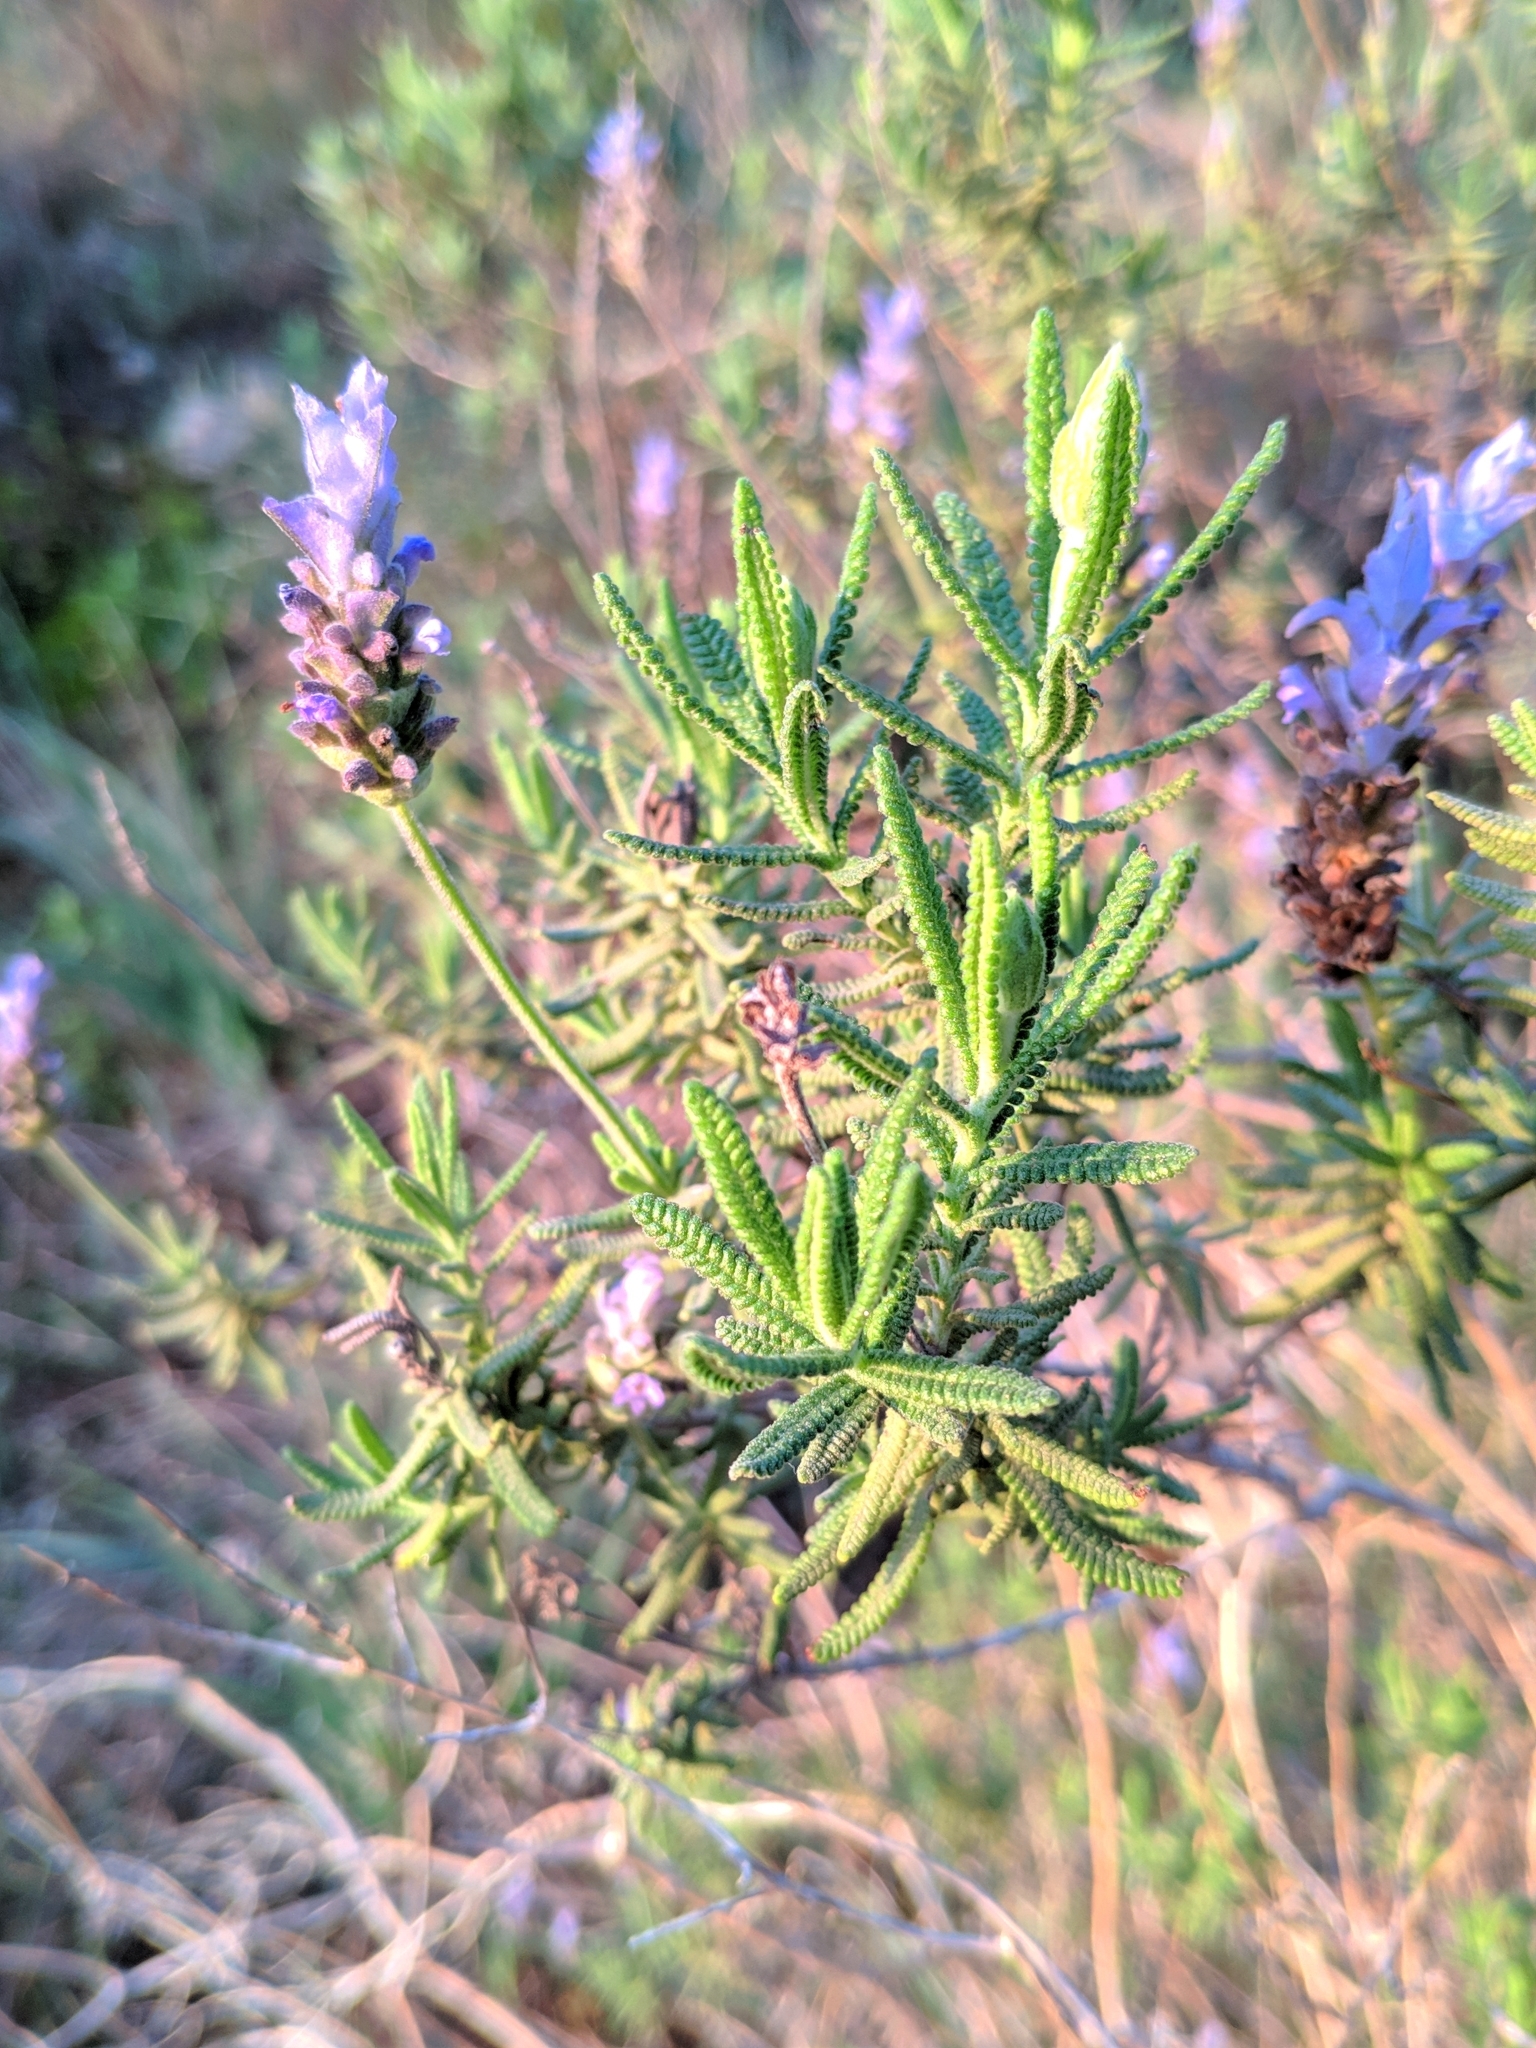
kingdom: Plantae
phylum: Tracheophyta
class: Magnoliopsida
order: Lamiales
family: Lamiaceae
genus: Lavandula
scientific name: Lavandula dentata
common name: French lavender
